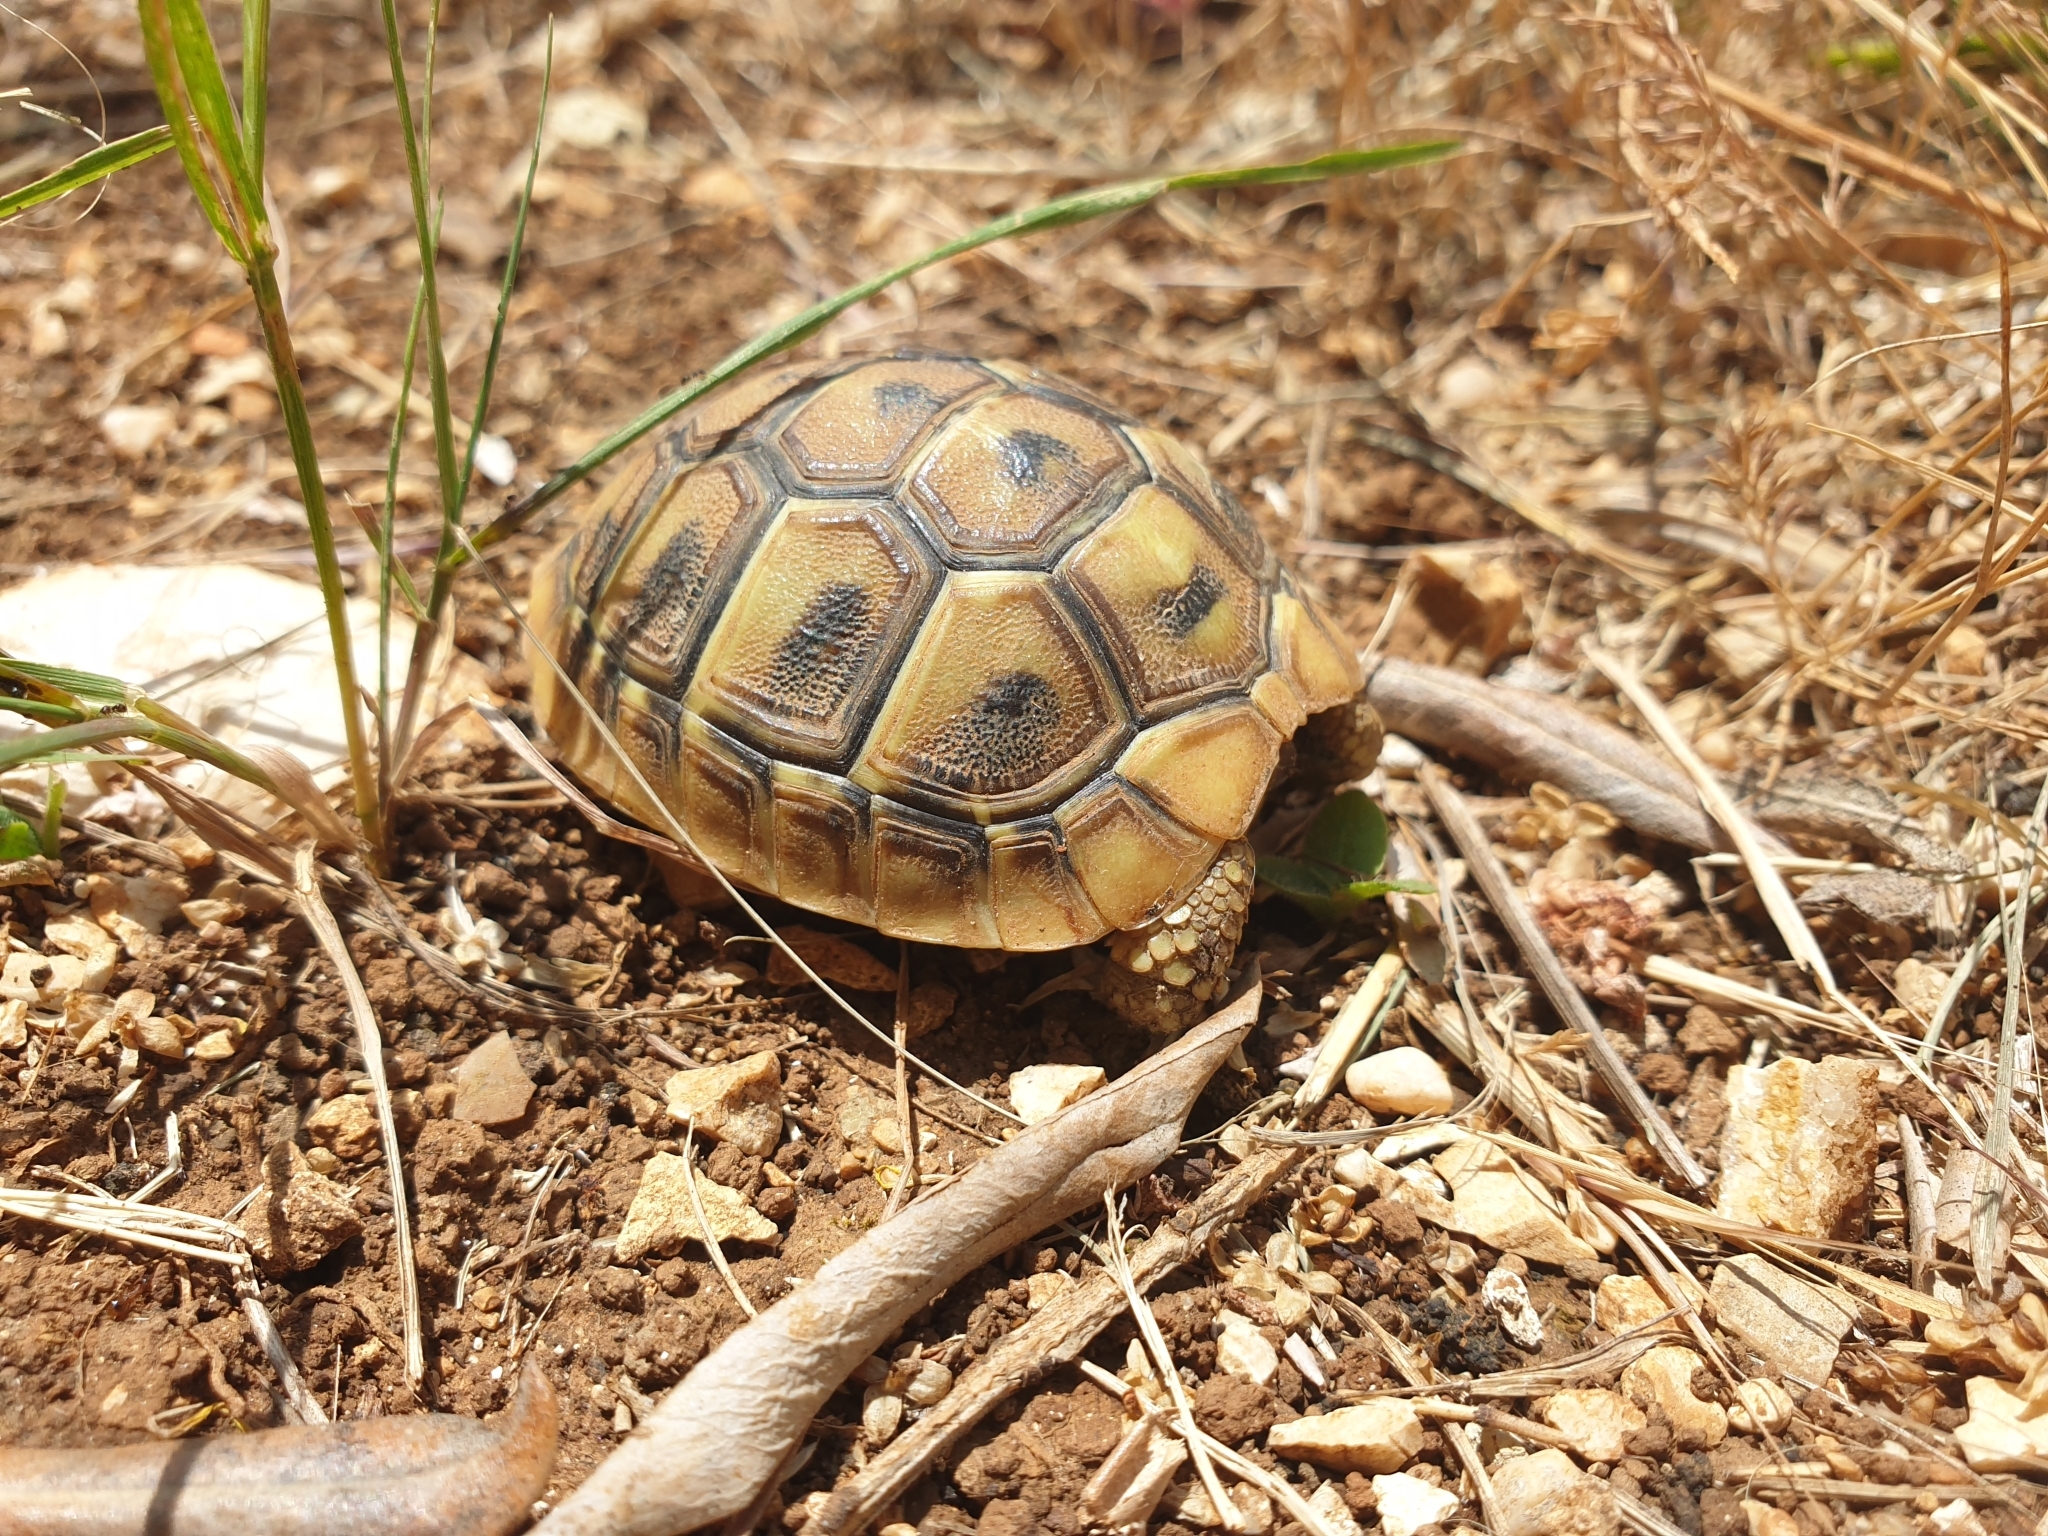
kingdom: Animalia
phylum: Chordata
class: Testudines
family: Testudinidae
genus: Testudo
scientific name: Testudo hermanni
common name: Hermann's tortoise
